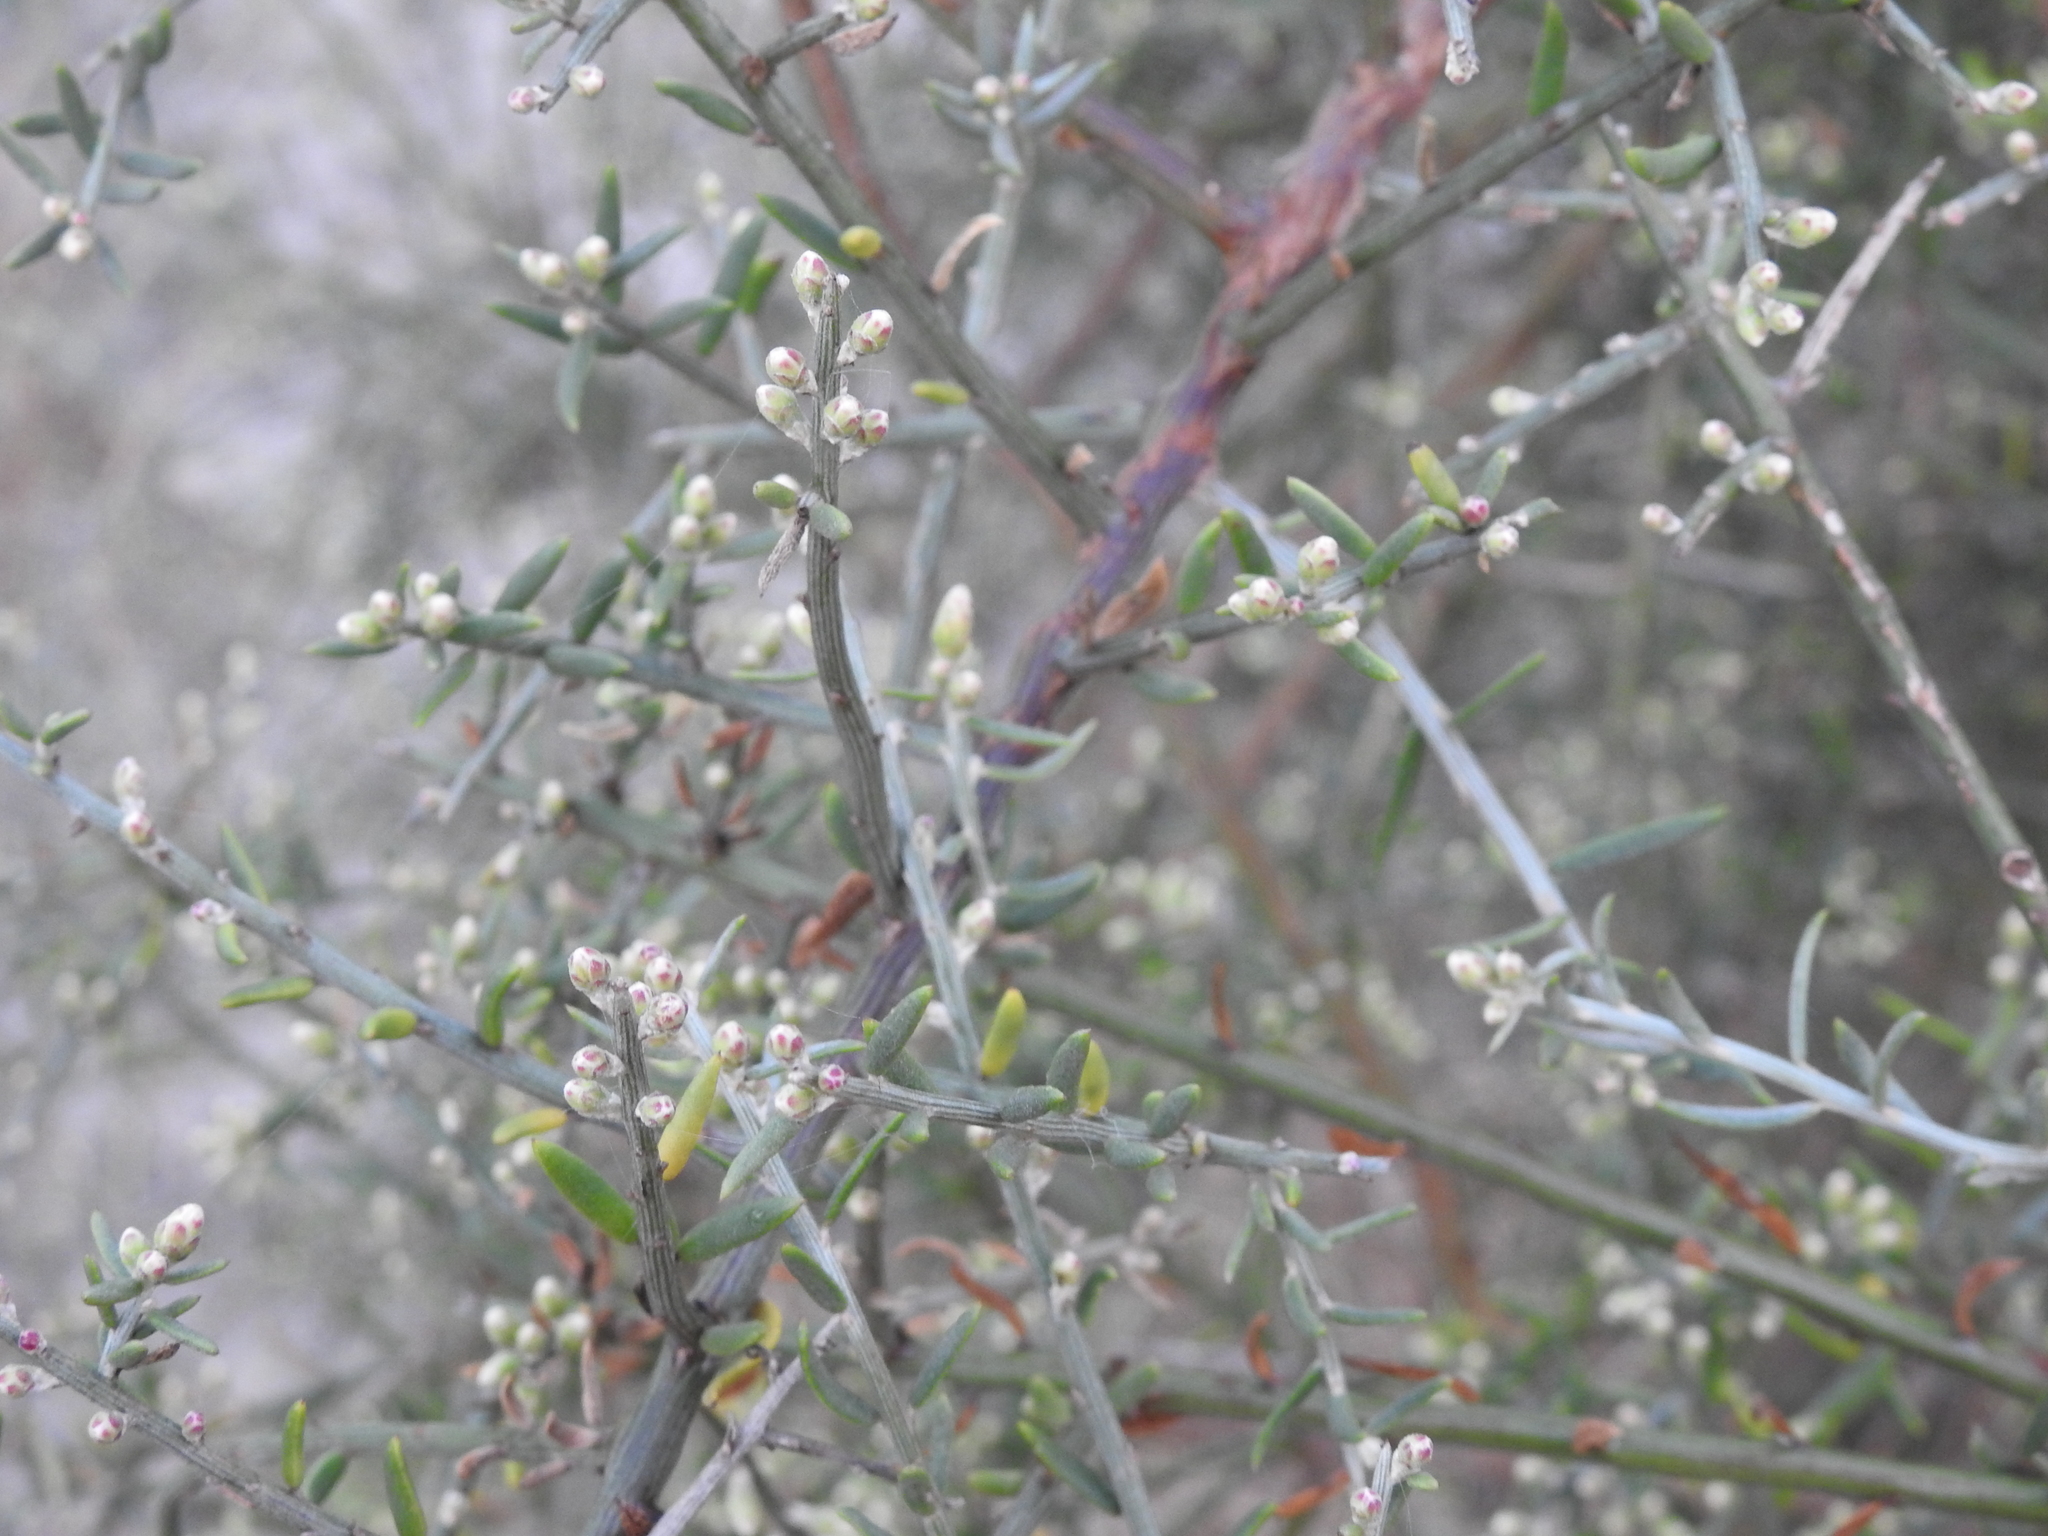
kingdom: Plantae
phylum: Tracheophyta
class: Magnoliopsida
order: Asterales
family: Asteraceae
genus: Cyclolepis
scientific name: Cyclolepis genistoides
